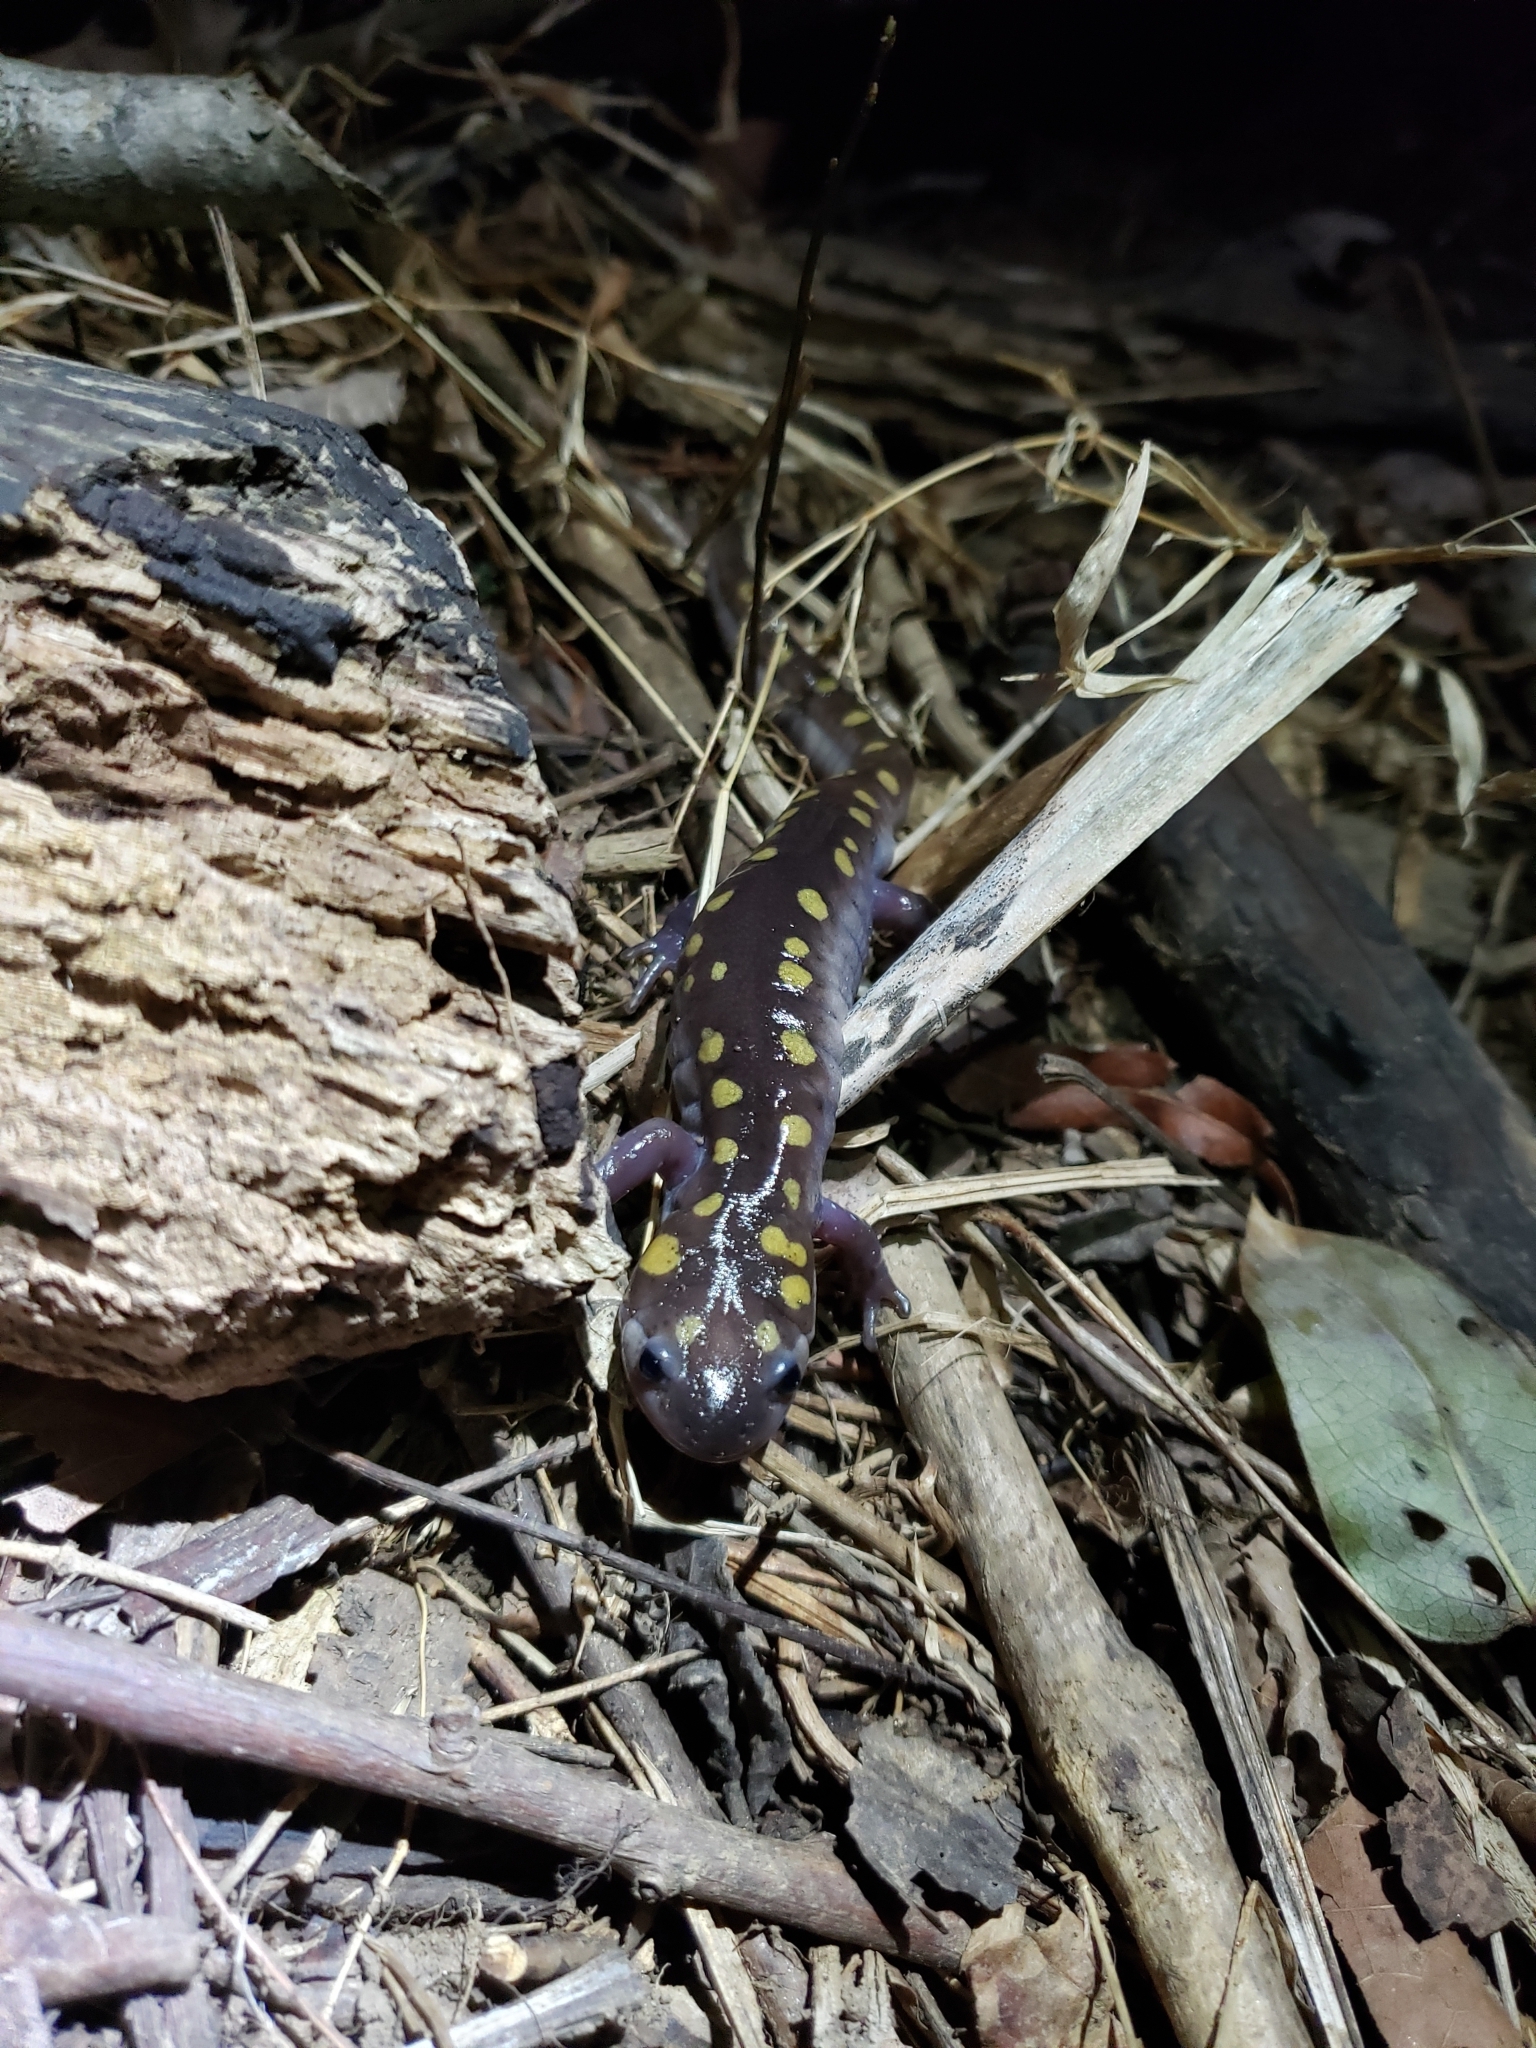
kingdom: Animalia
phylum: Chordata
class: Amphibia
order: Caudata
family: Ambystomatidae
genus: Ambystoma
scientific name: Ambystoma maculatum
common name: Spotted salamander
